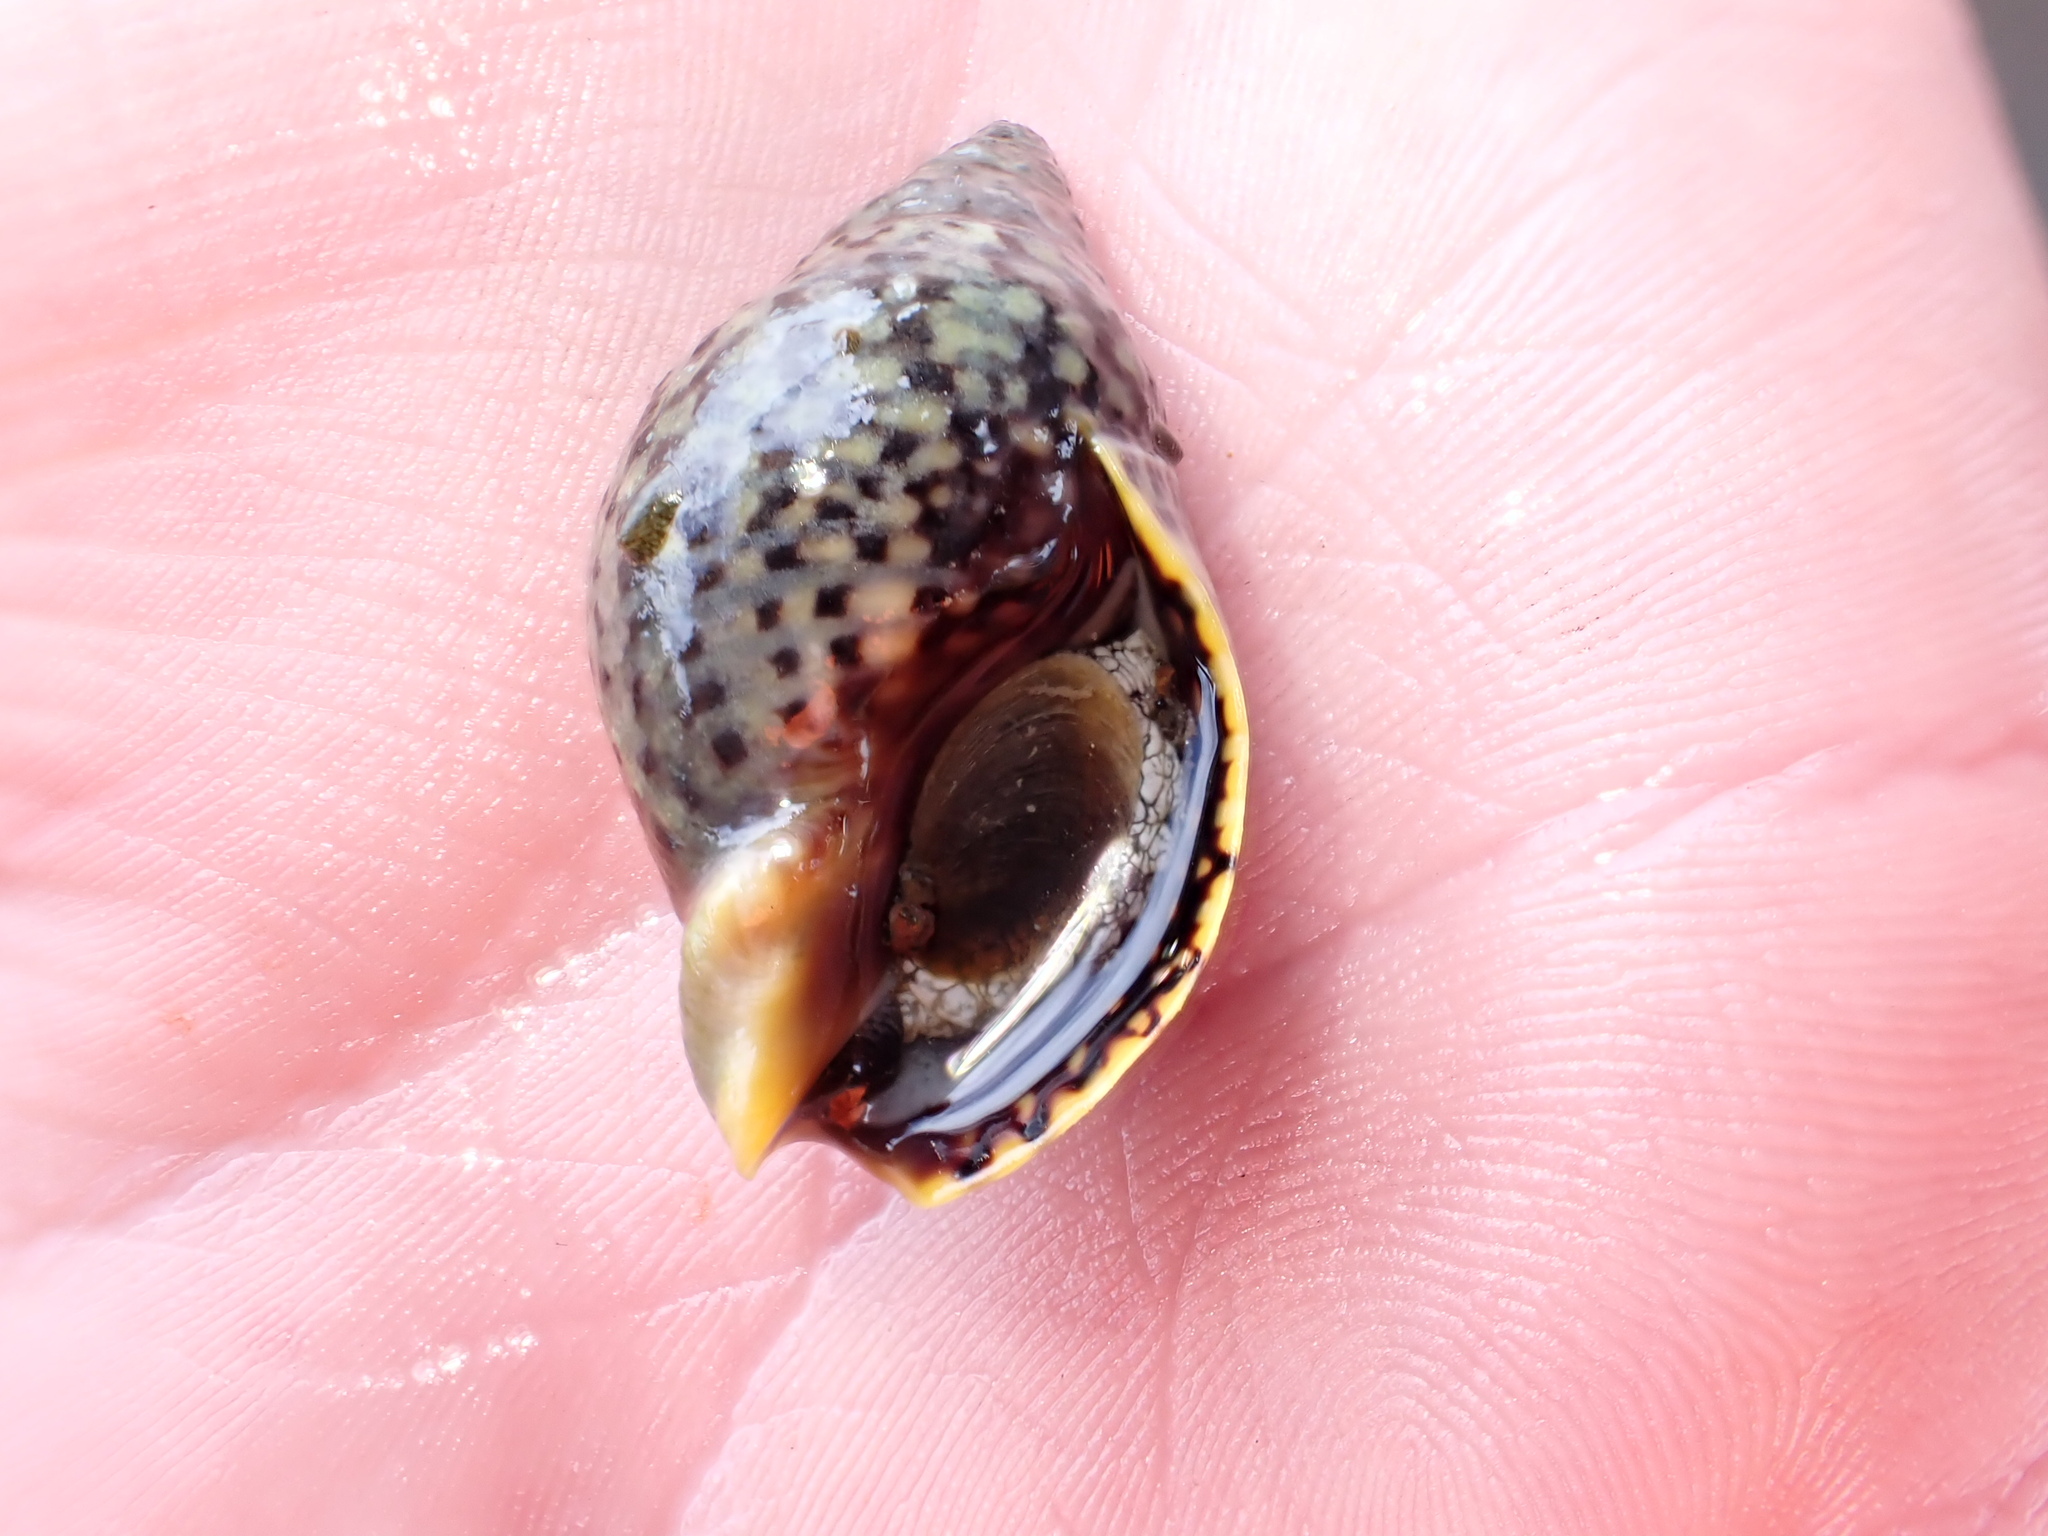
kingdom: Animalia
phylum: Mollusca
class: Gastropoda
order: Neogastropoda
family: Cominellidae
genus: Cominella
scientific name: Cominella maculosa
